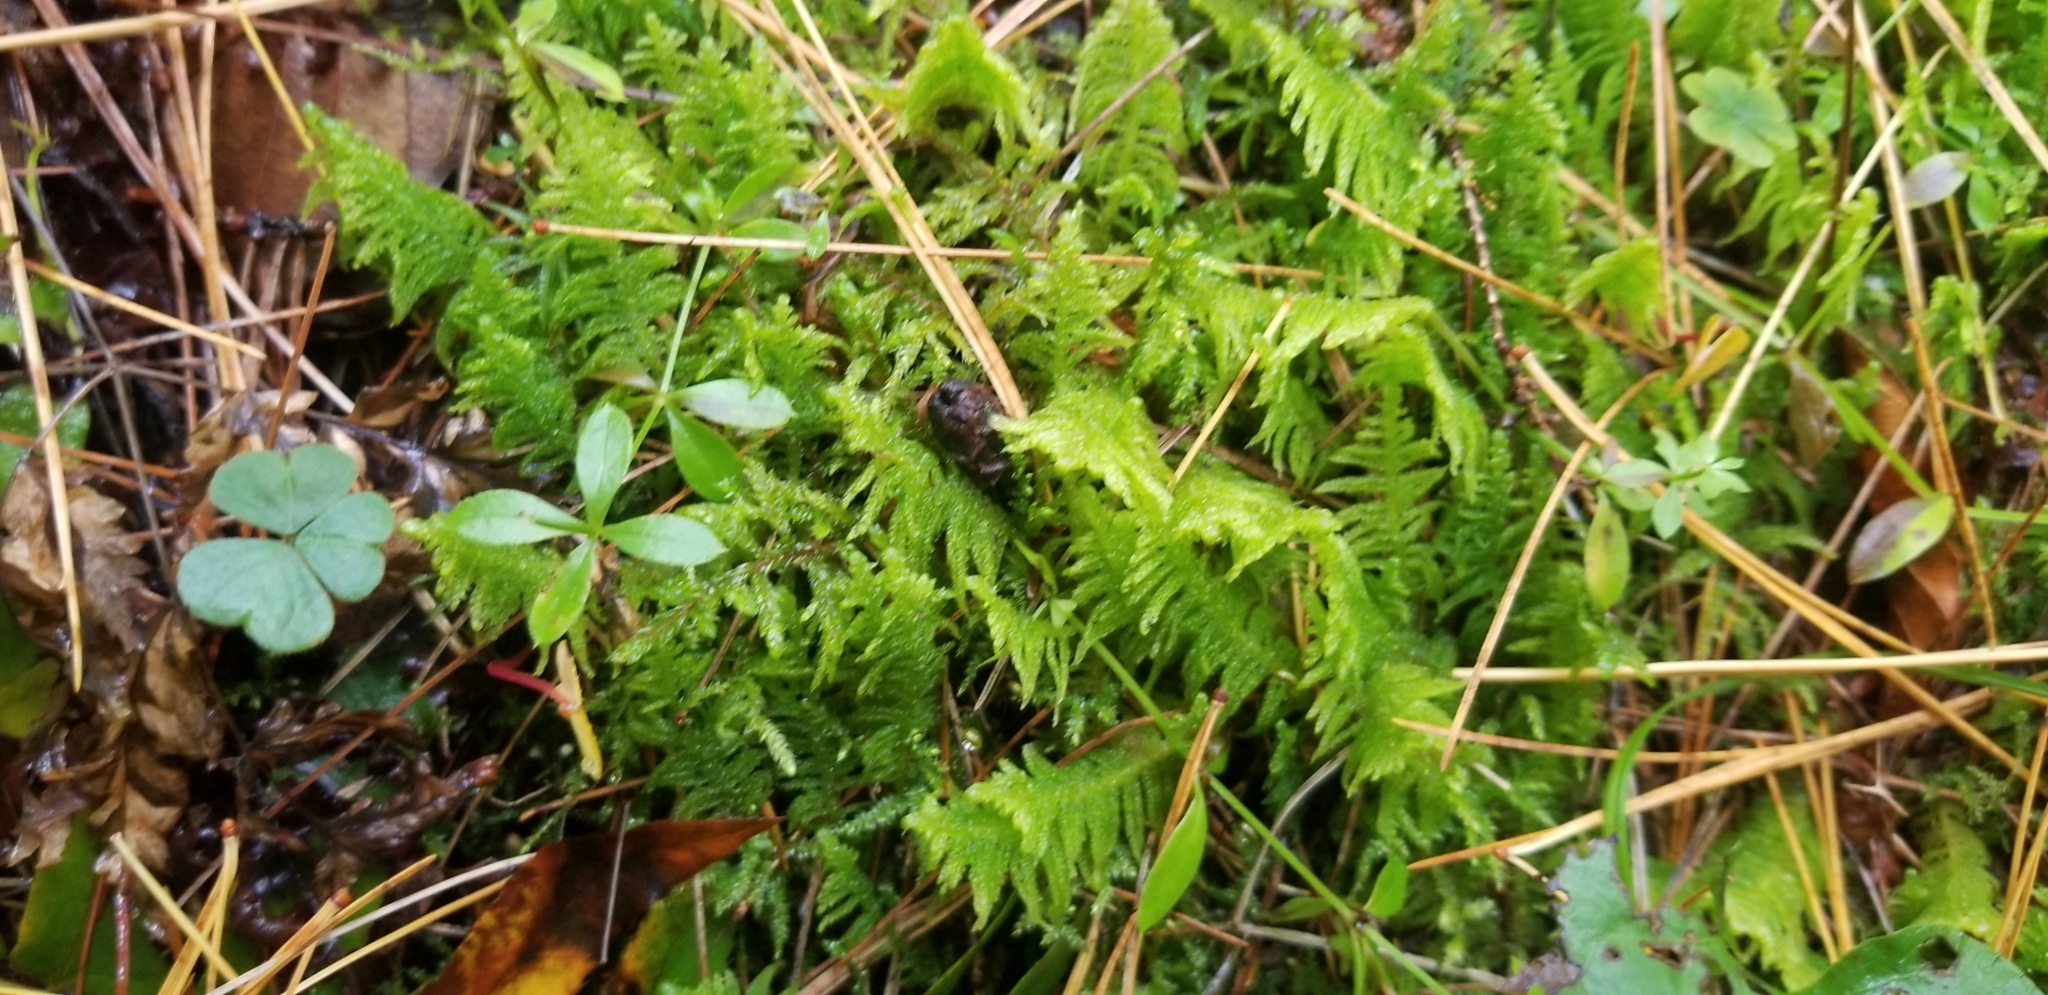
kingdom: Plantae
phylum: Bryophyta
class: Bryopsida
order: Hypnales
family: Pylaisiaceae
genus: Ptilium
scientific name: Ptilium crista-castrensis
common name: Knight's plume moss
